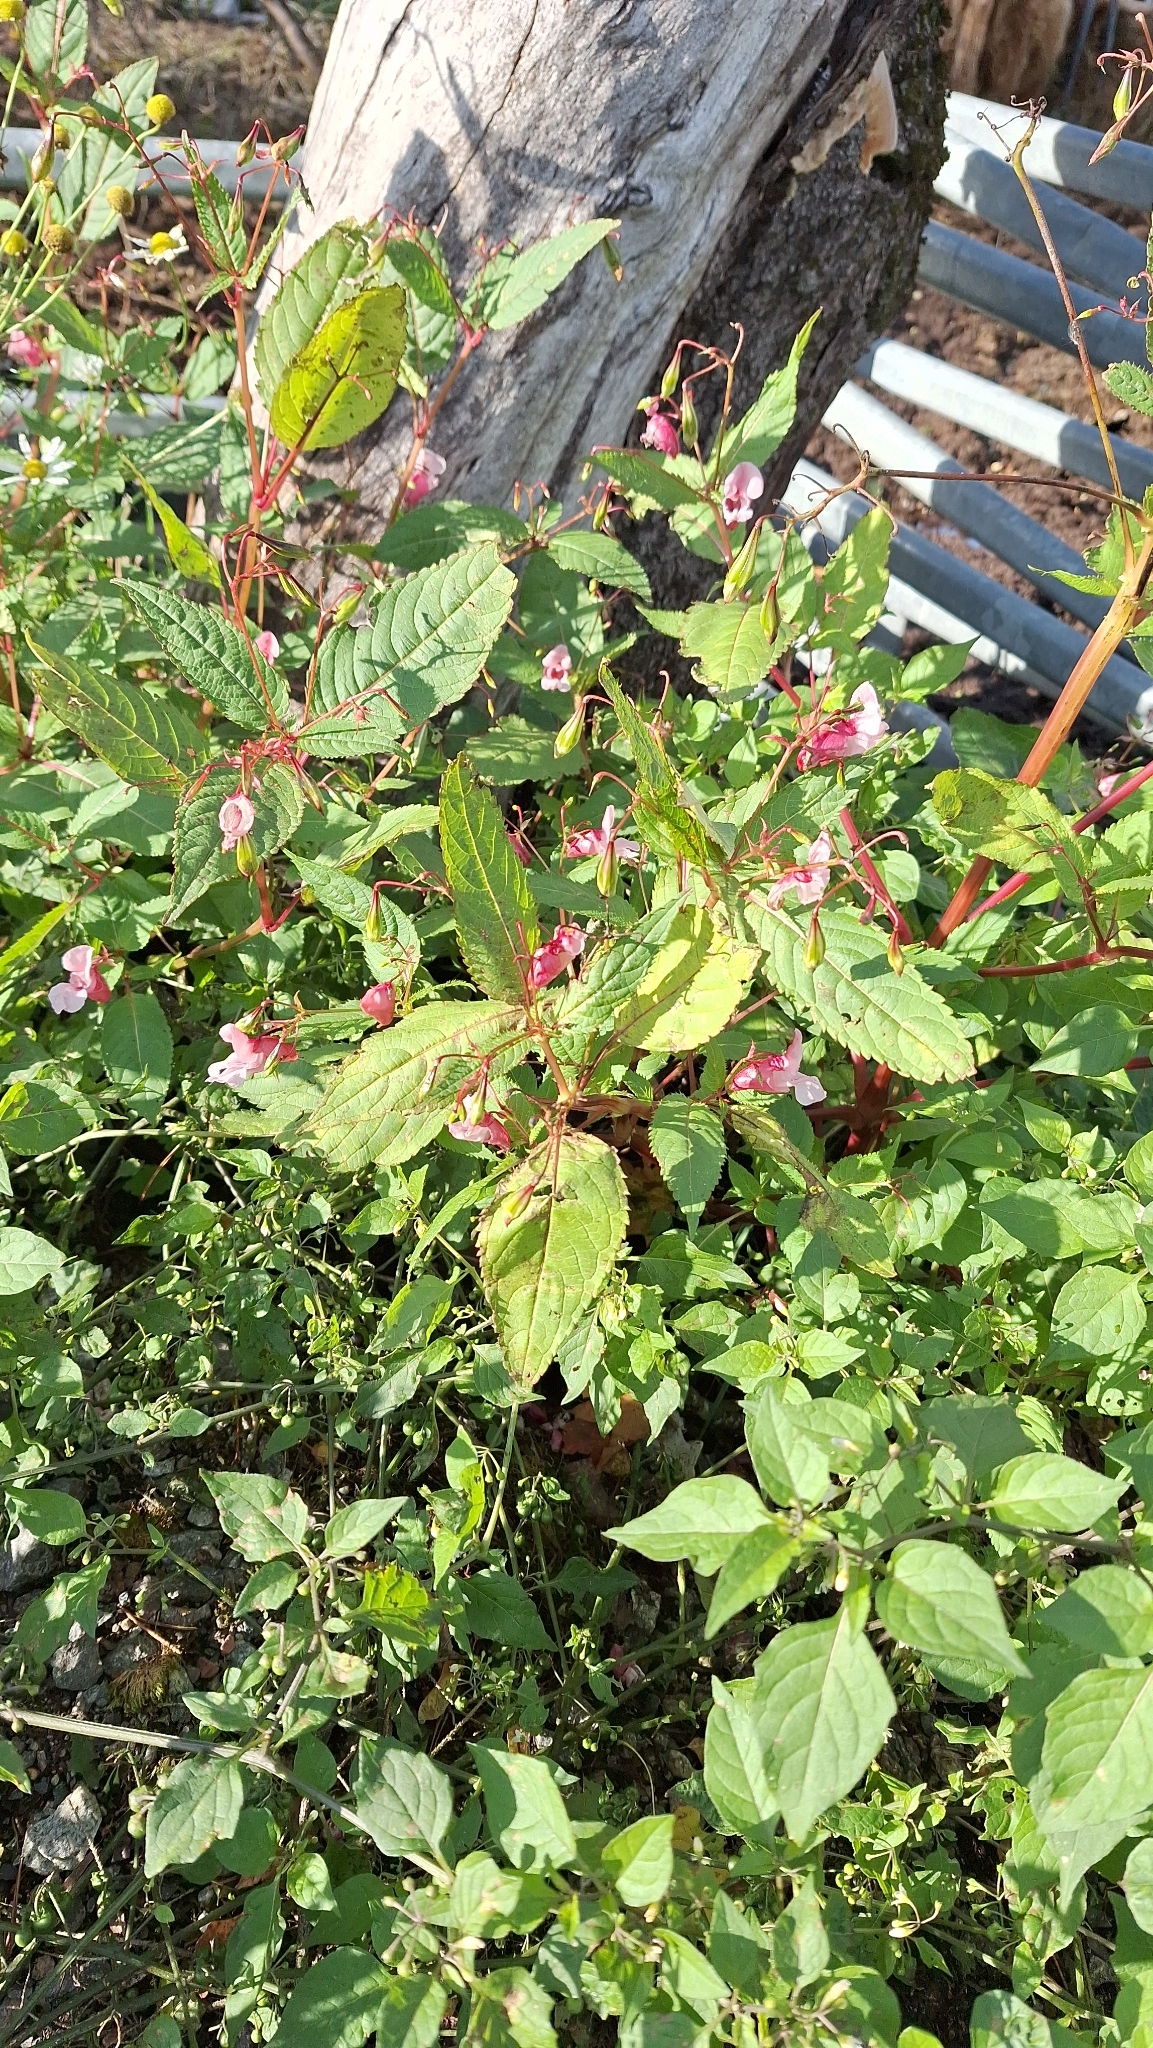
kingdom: Plantae
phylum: Tracheophyta
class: Magnoliopsida
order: Ericales
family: Balsaminaceae
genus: Impatiens
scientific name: Impatiens glandulifera
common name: Himalayan balsam
